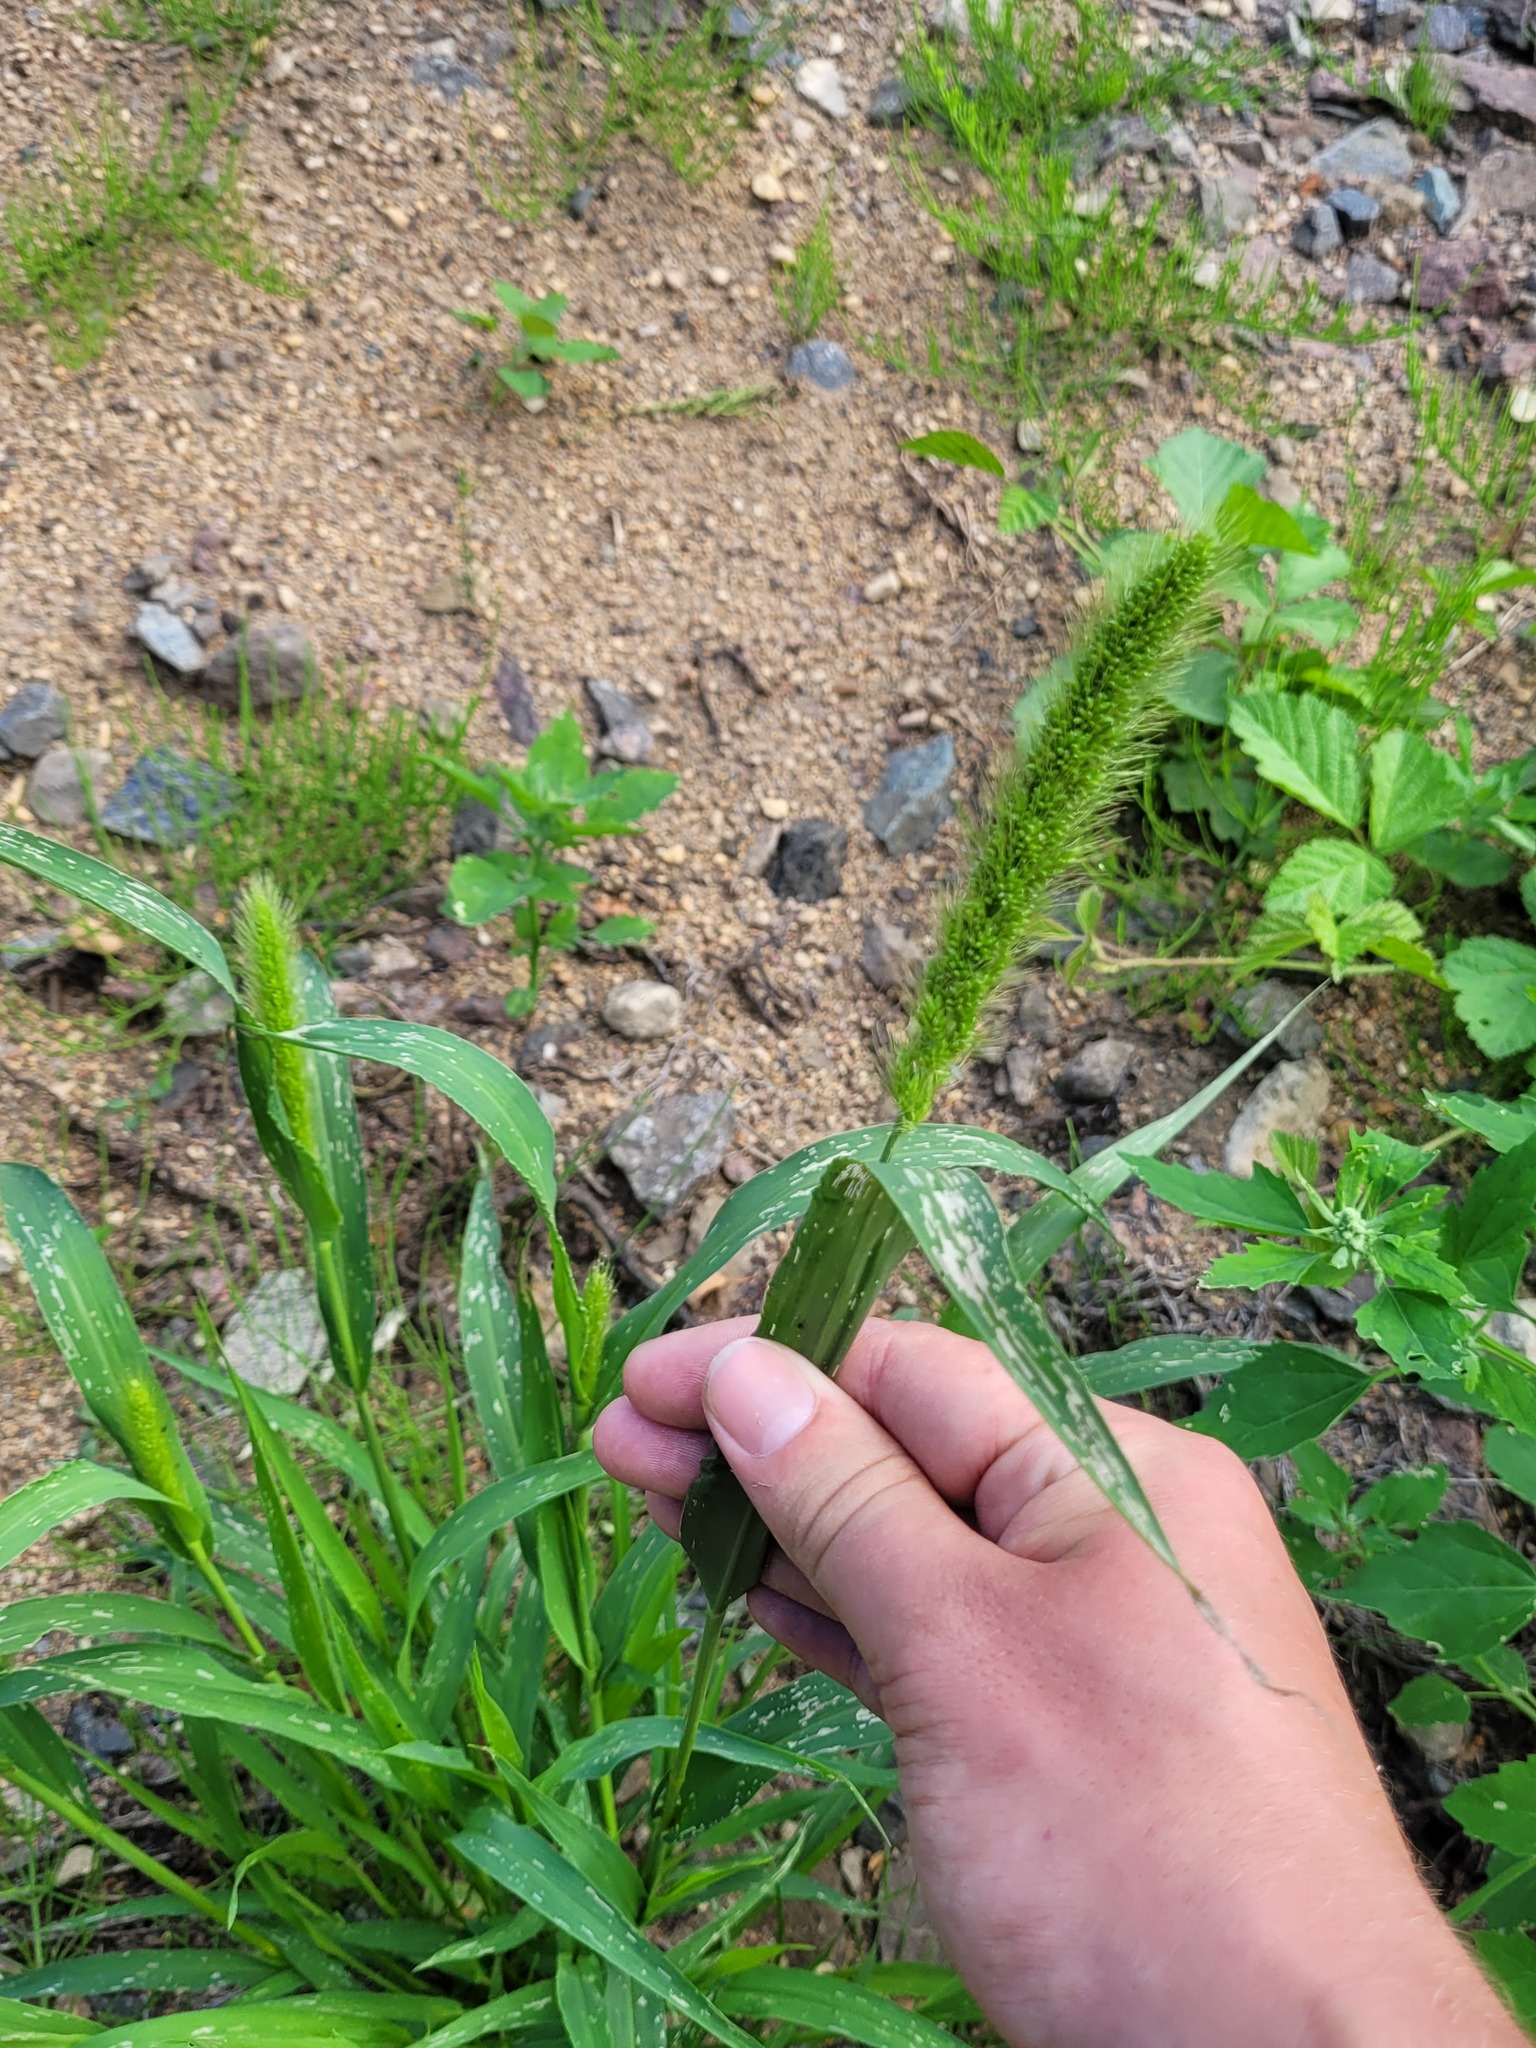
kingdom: Plantae
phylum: Tracheophyta
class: Liliopsida
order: Poales
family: Poaceae
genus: Setaria
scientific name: Setaria viridis
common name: Green bristlegrass
